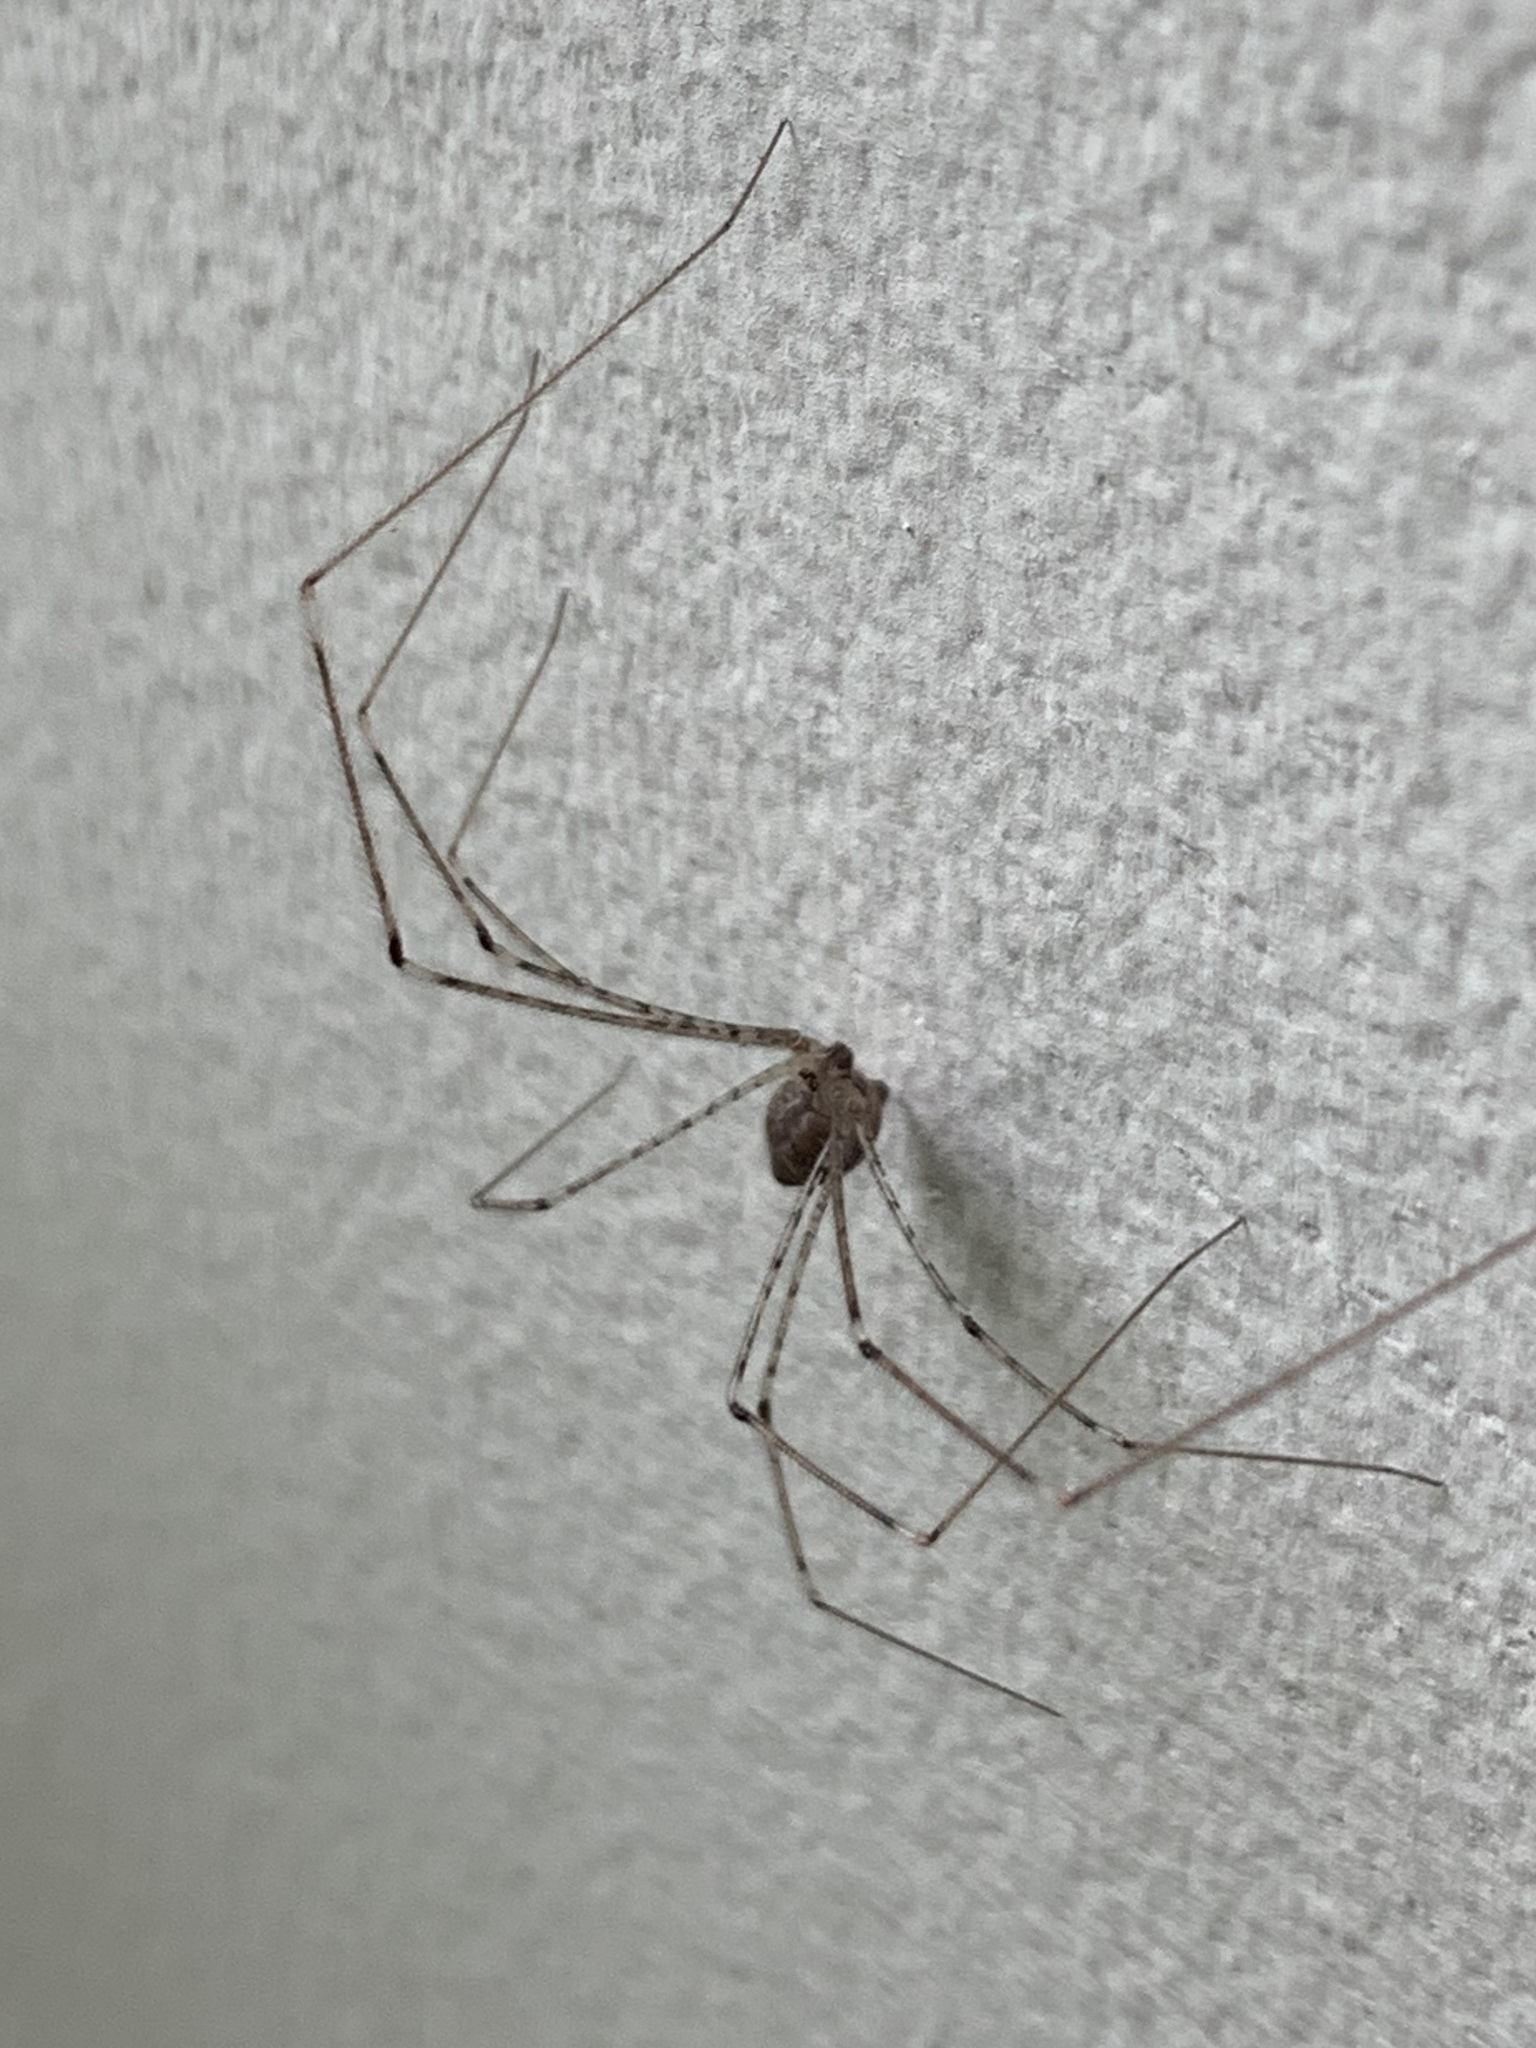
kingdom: Animalia
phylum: Arthropoda
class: Arachnida
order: Araneae
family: Pholcidae
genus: Crossopriza
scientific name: Crossopriza lyoni
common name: Cellar spiders
